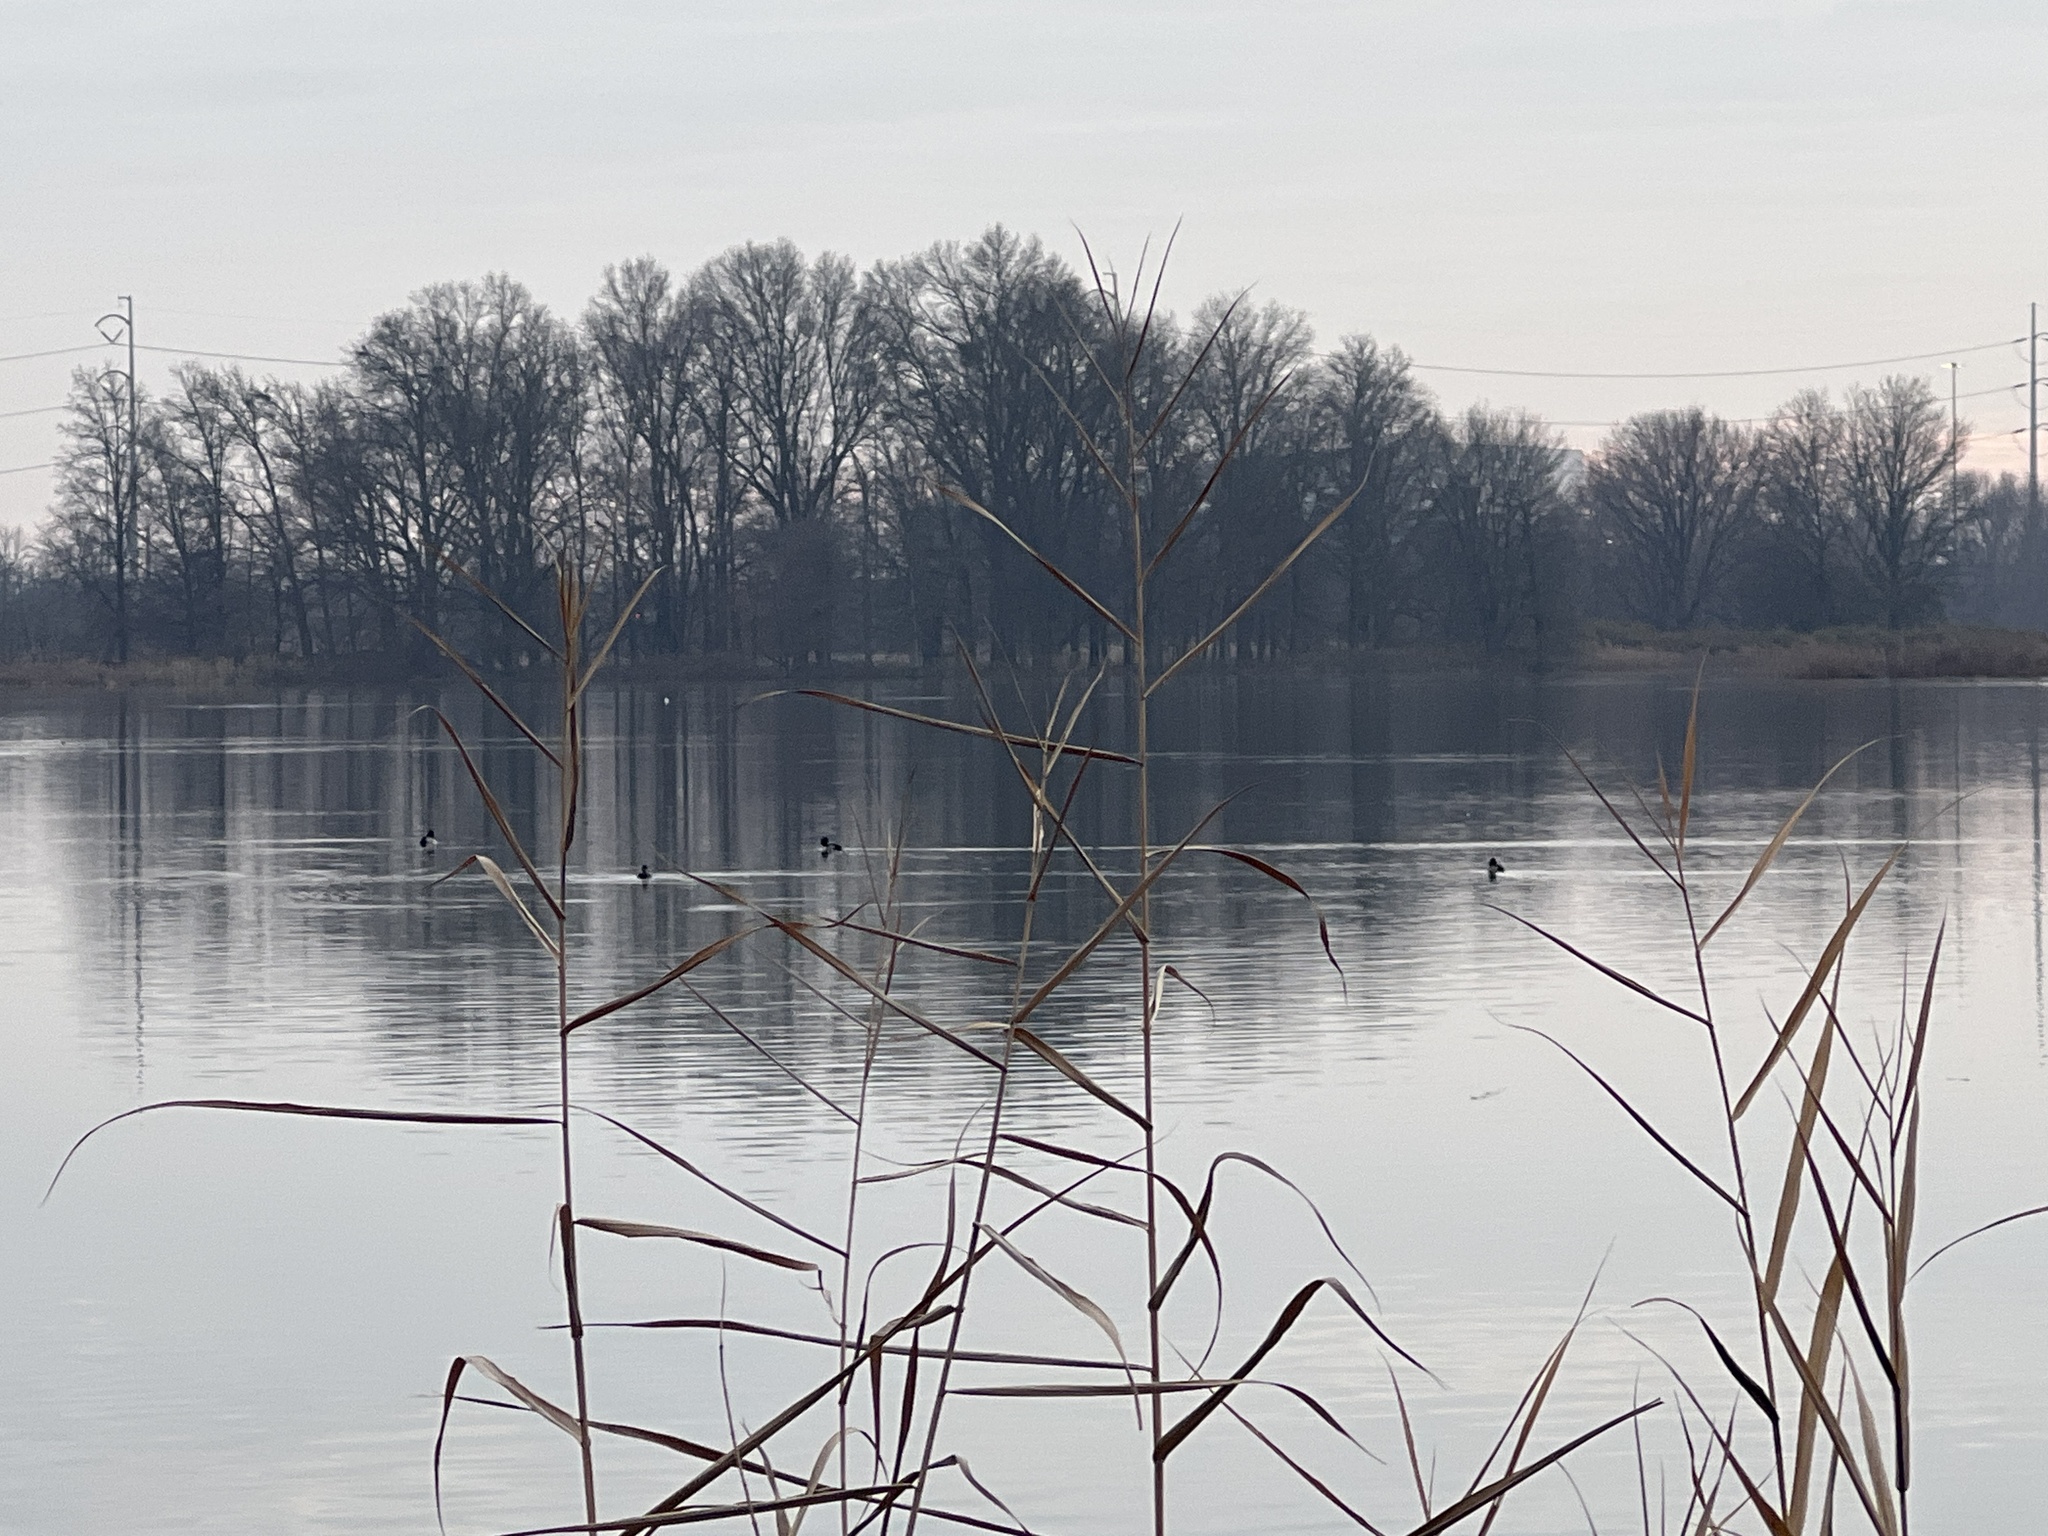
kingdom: Animalia
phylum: Chordata
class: Aves
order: Anseriformes
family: Anatidae
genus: Aythya
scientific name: Aythya collaris
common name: Ring-necked duck
